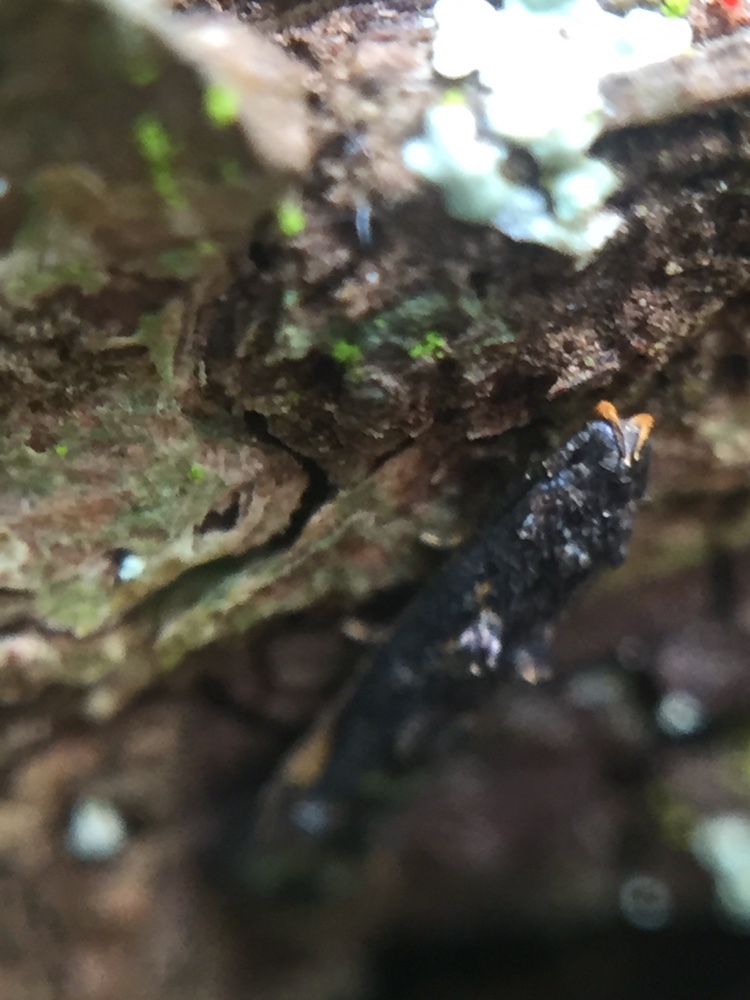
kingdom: Animalia
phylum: Arthropoda
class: Insecta
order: Lepidoptera
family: Elachistidae
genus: Microcolona
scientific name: Microcolona
